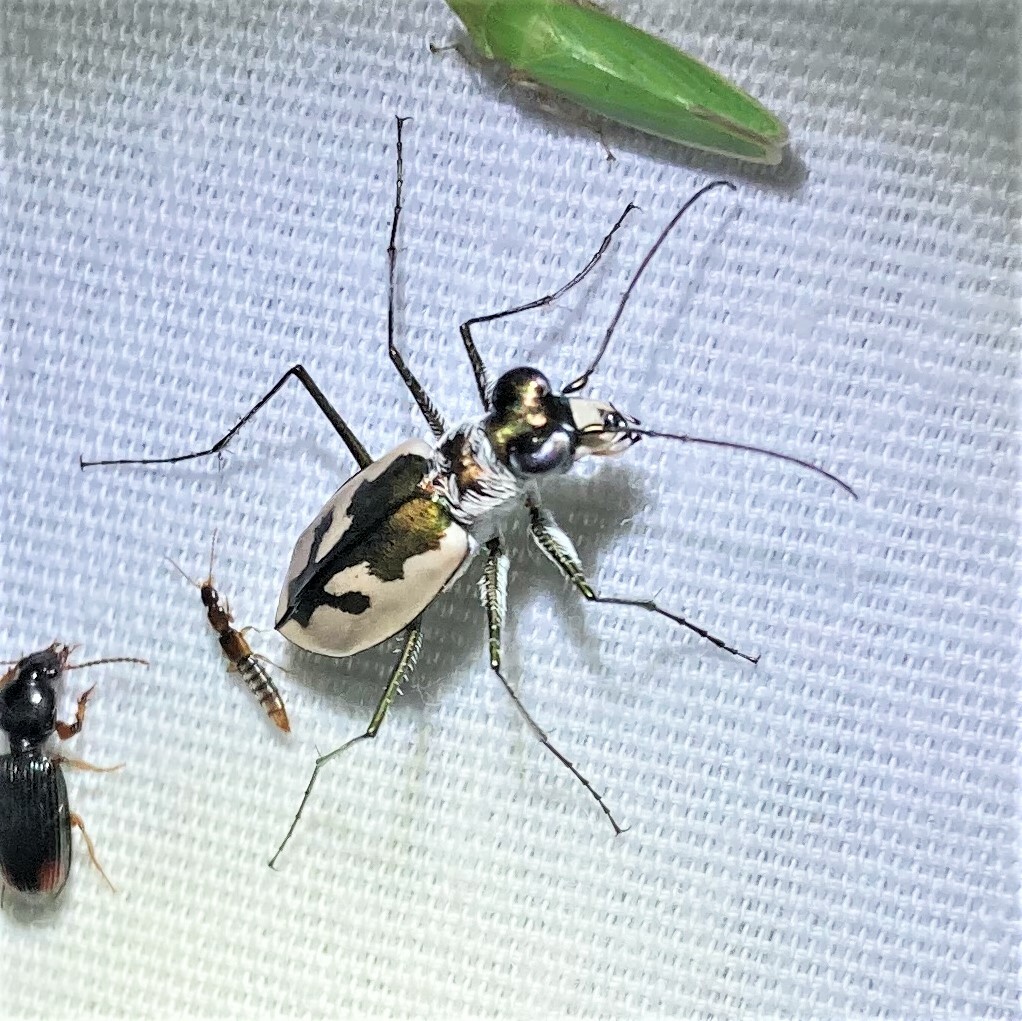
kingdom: Animalia
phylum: Arthropoda
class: Insecta
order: Coleoptera
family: Carabidae
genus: Eunota
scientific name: Eunota pamphila
